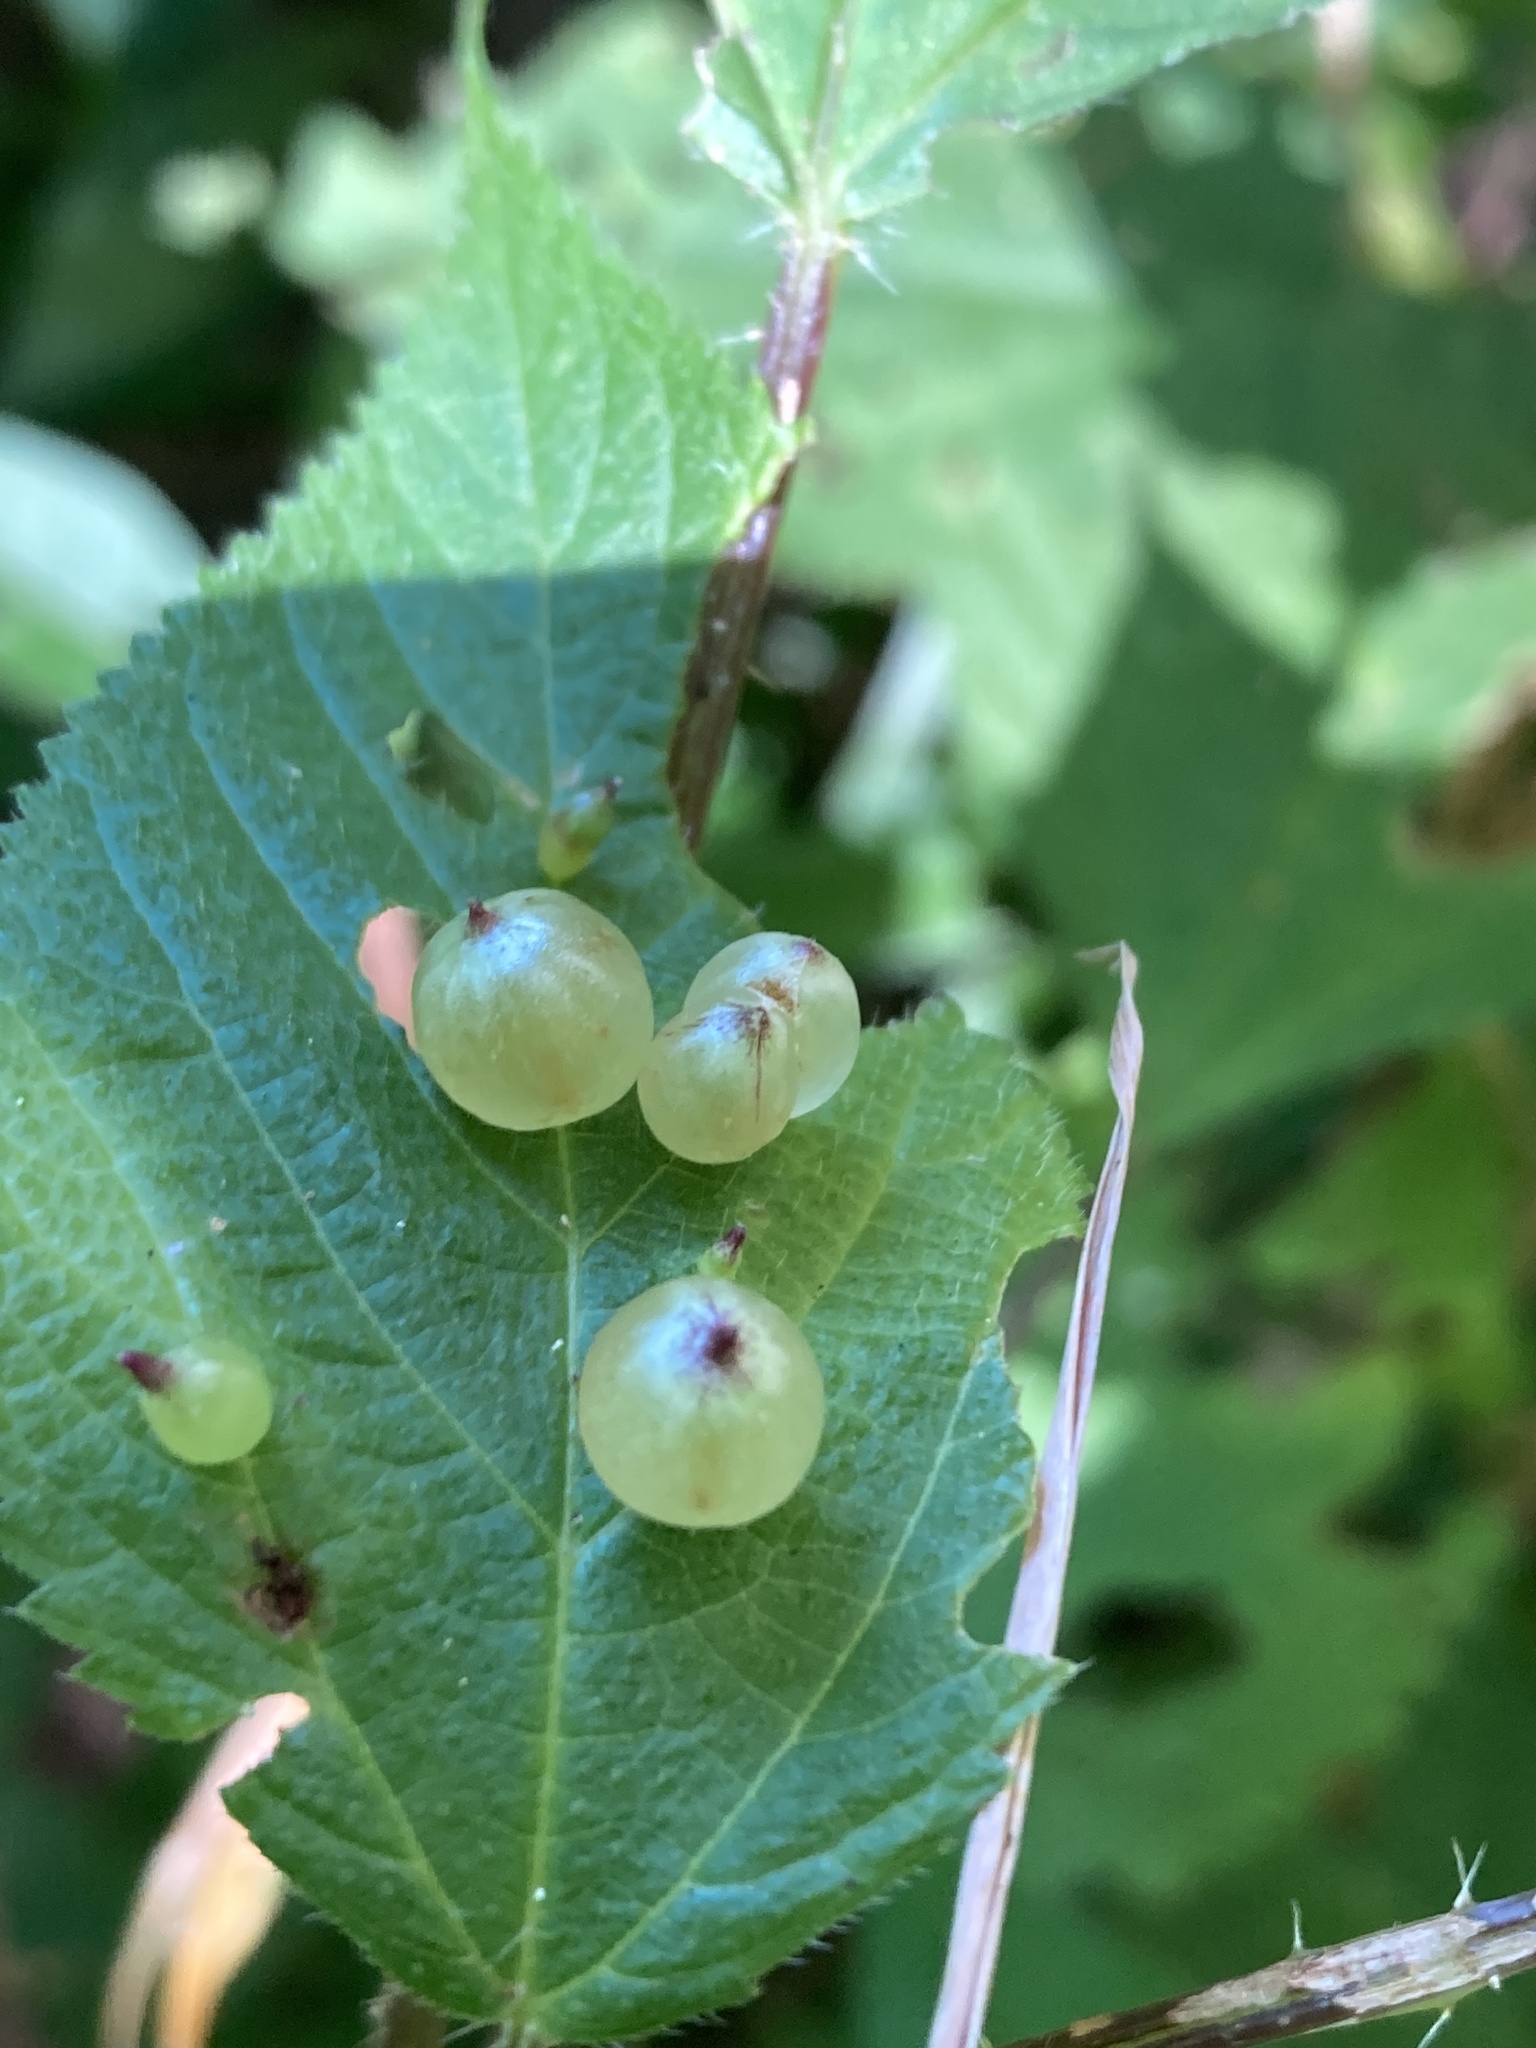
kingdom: Animalia
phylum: Arthropoda
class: Insecta
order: Diptera
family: Cecidomyiidae
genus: Dasineura
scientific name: Dasineura investita
